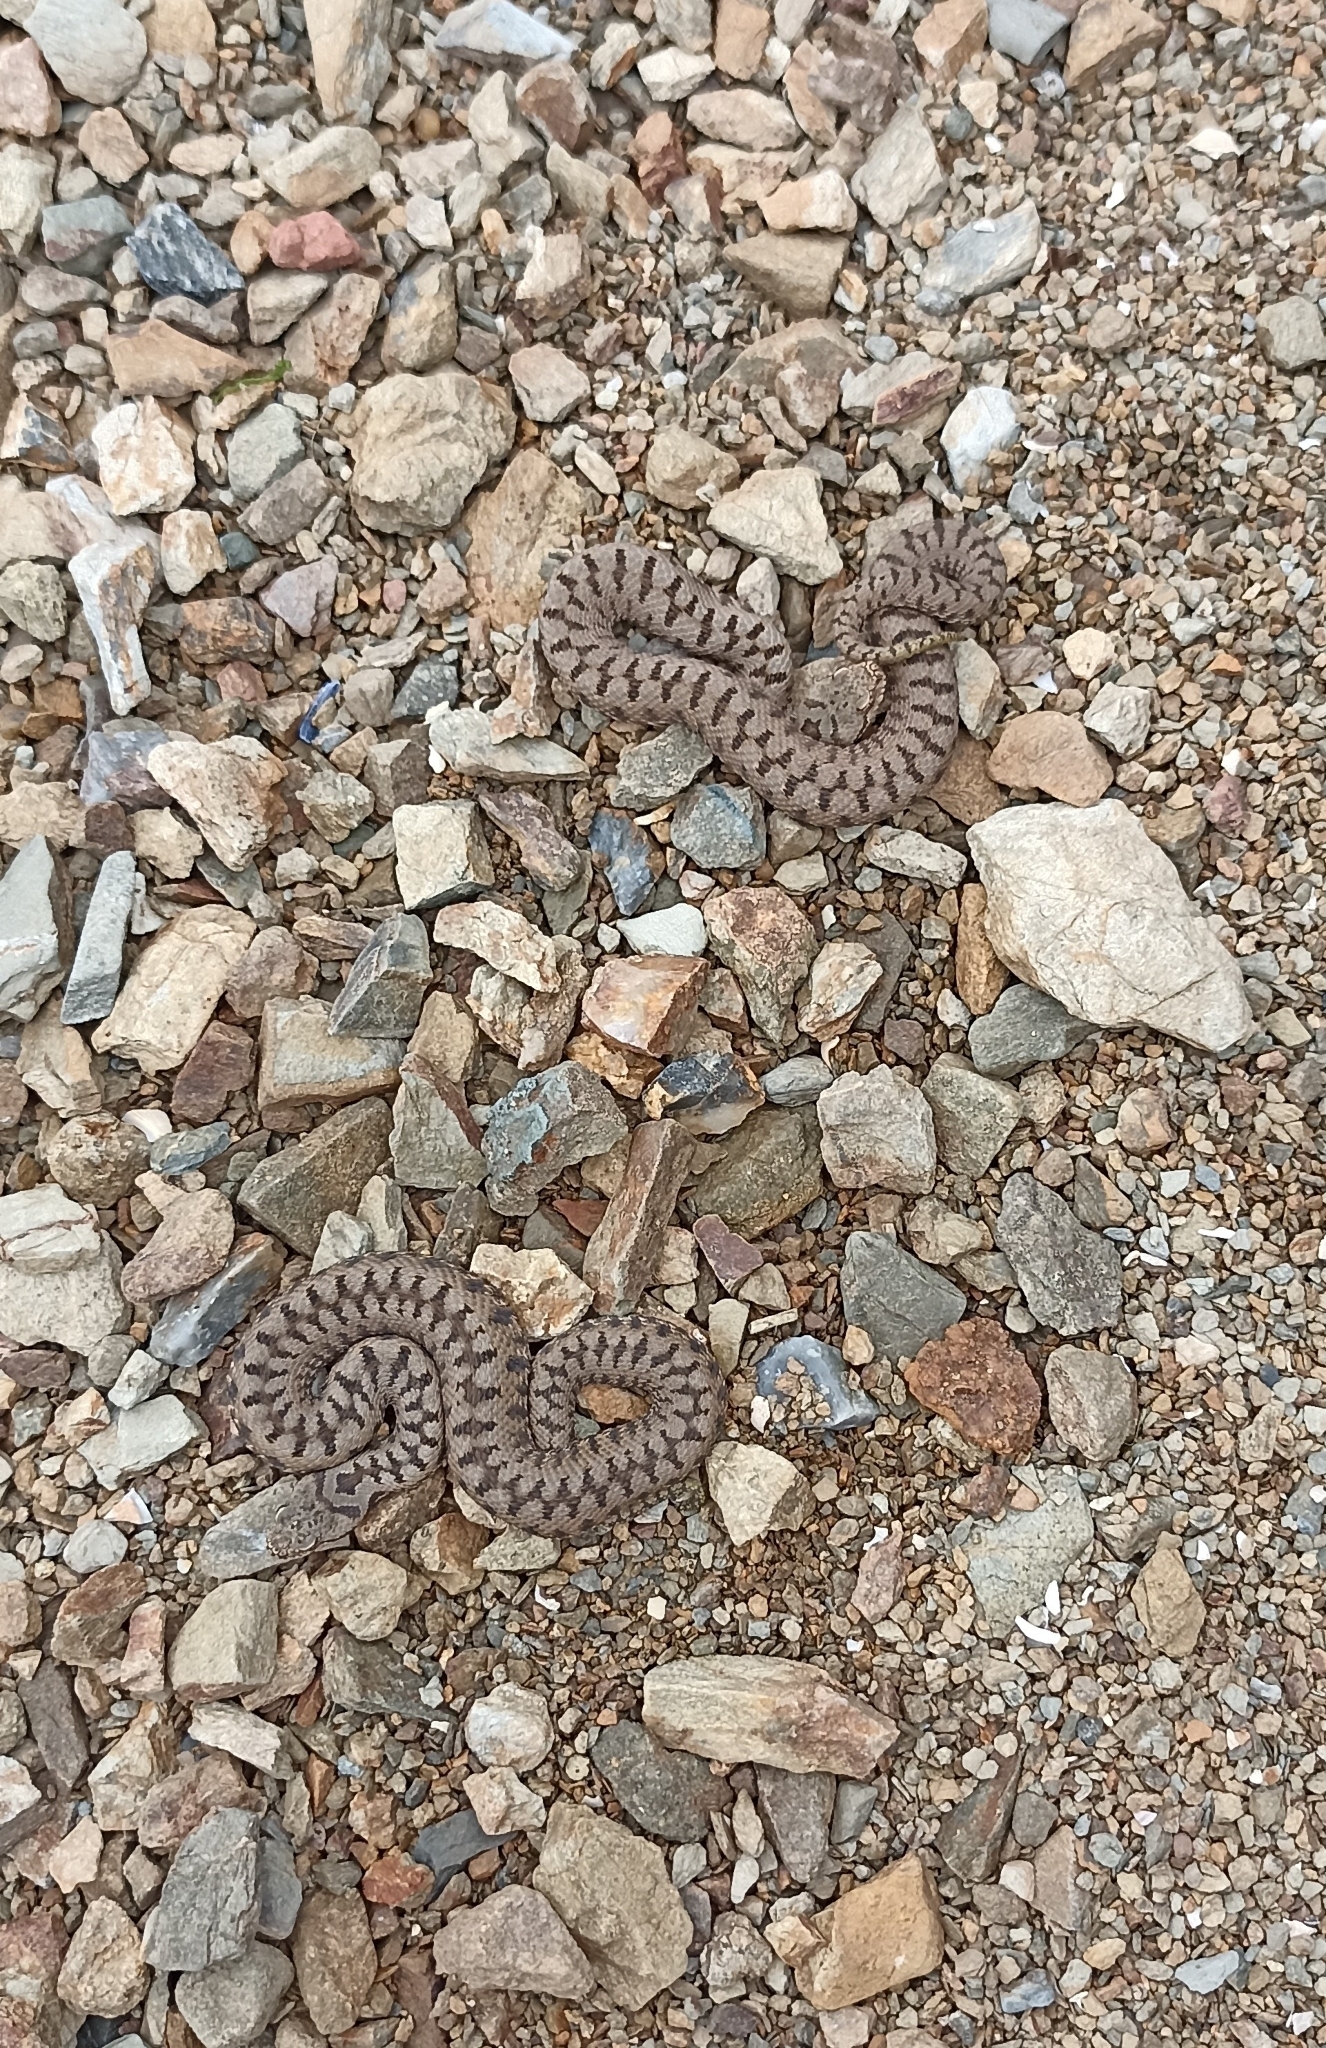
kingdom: Animalia
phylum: Chordata
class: Squamata
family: Viperidae
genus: Vipera
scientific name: Vipera aspis
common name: Asp viper
